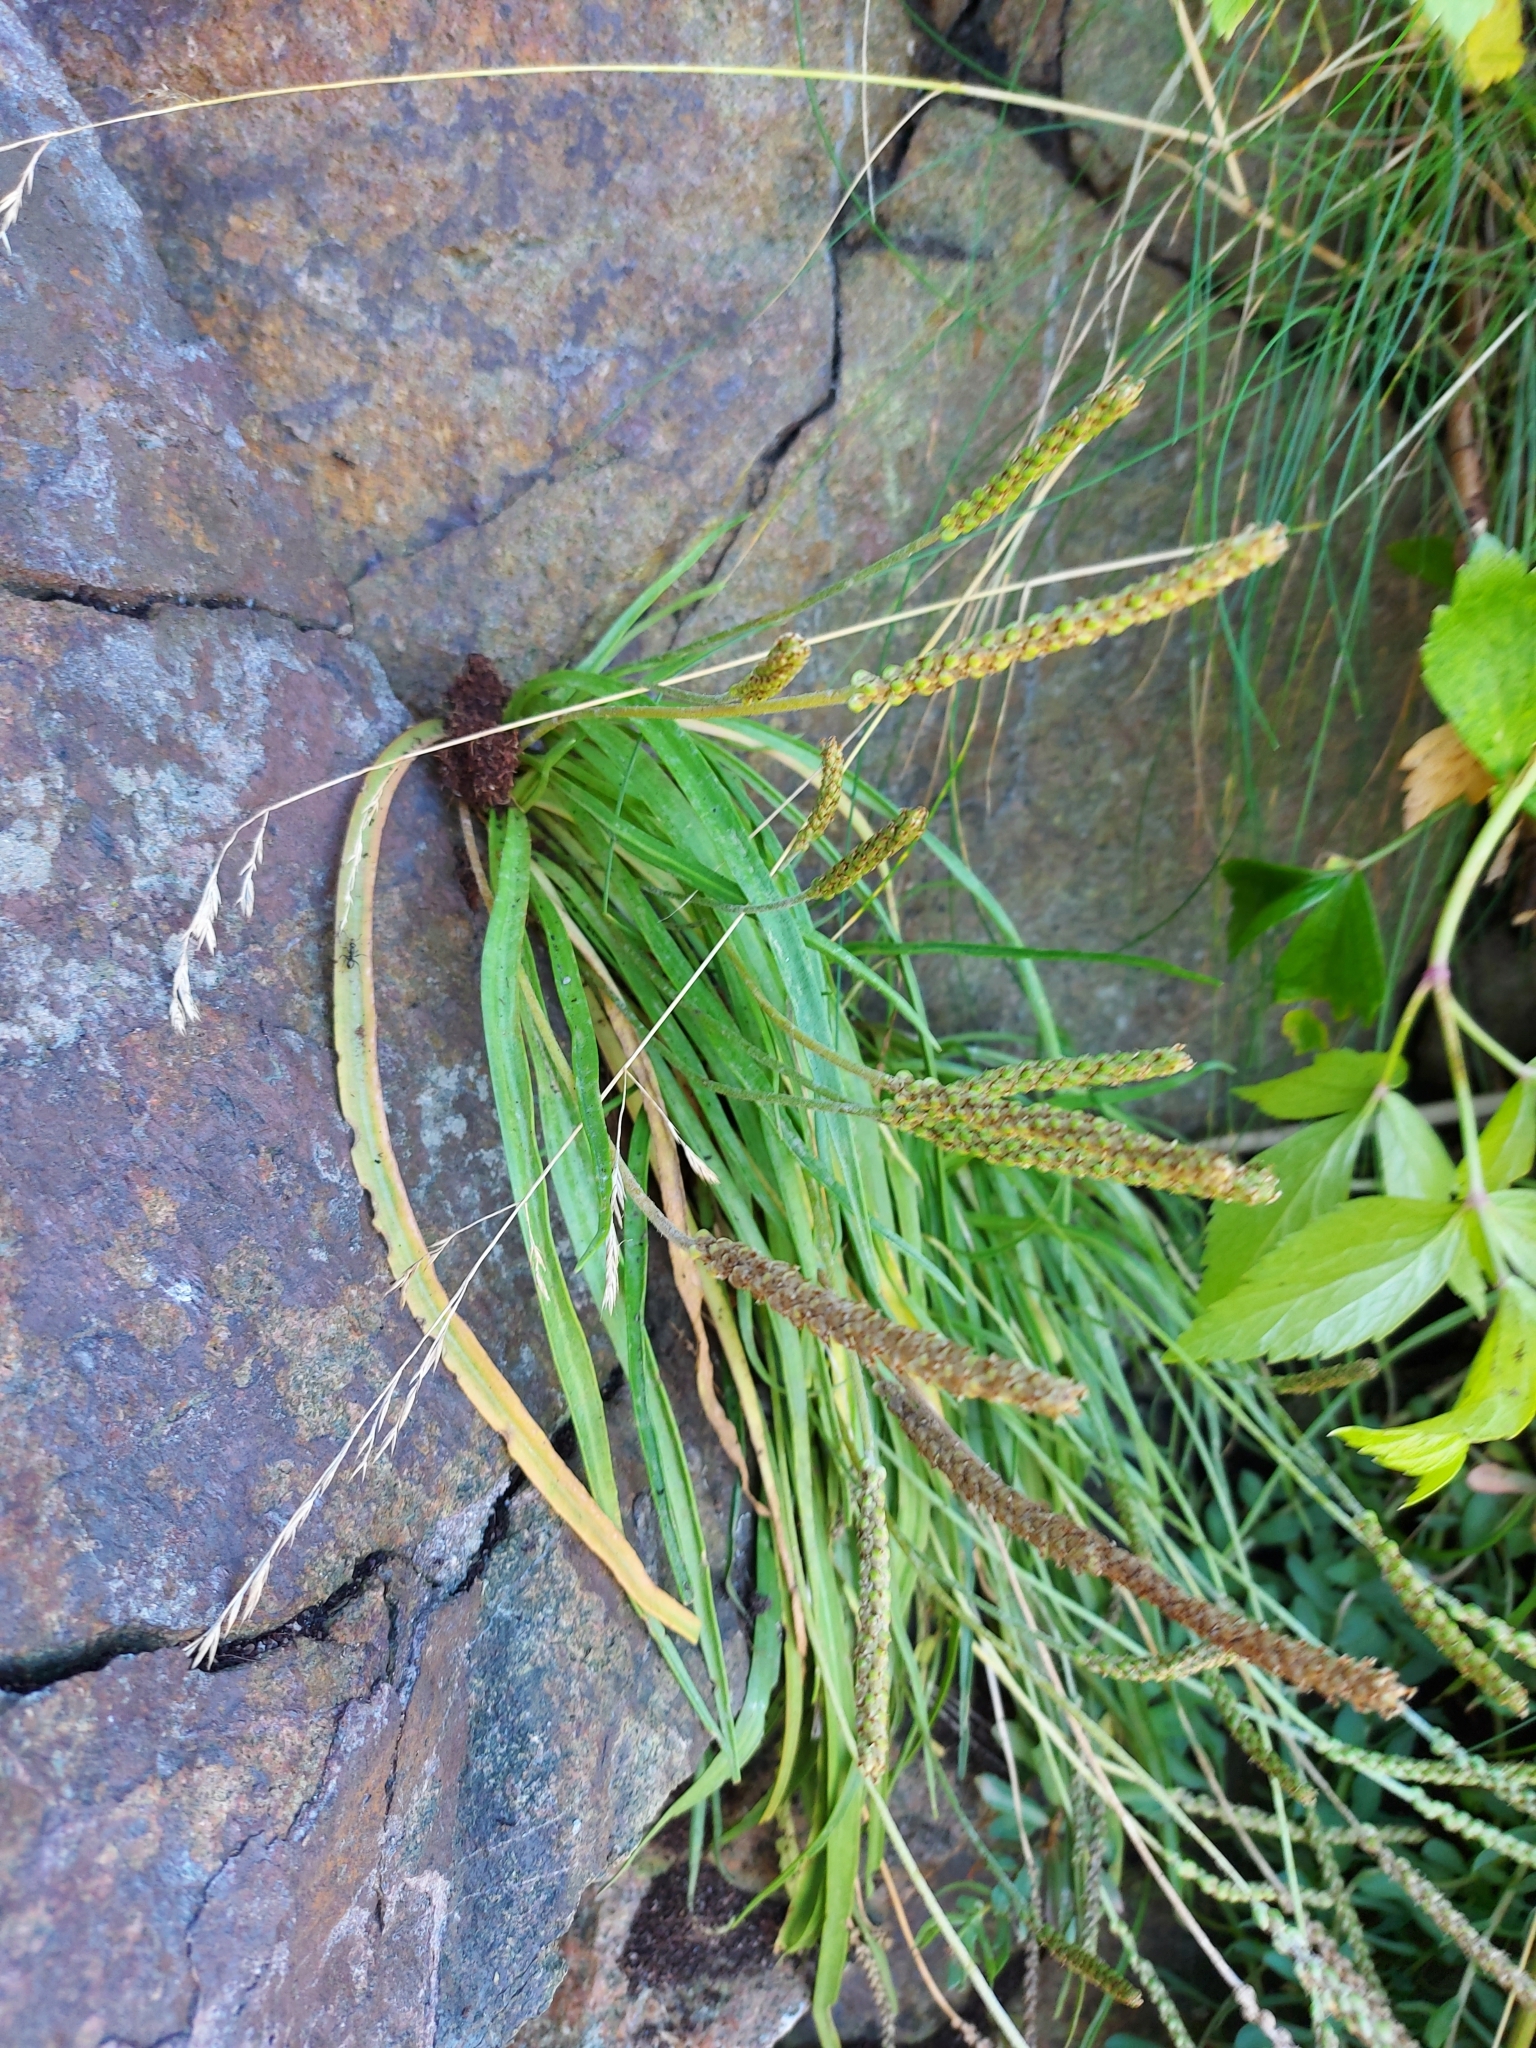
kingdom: Plantae
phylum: Tracheophyta
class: Magnoliopsida
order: Lamiales
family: Plantaginaceae
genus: Plantago
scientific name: Plantago maritima
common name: Sea plantain
